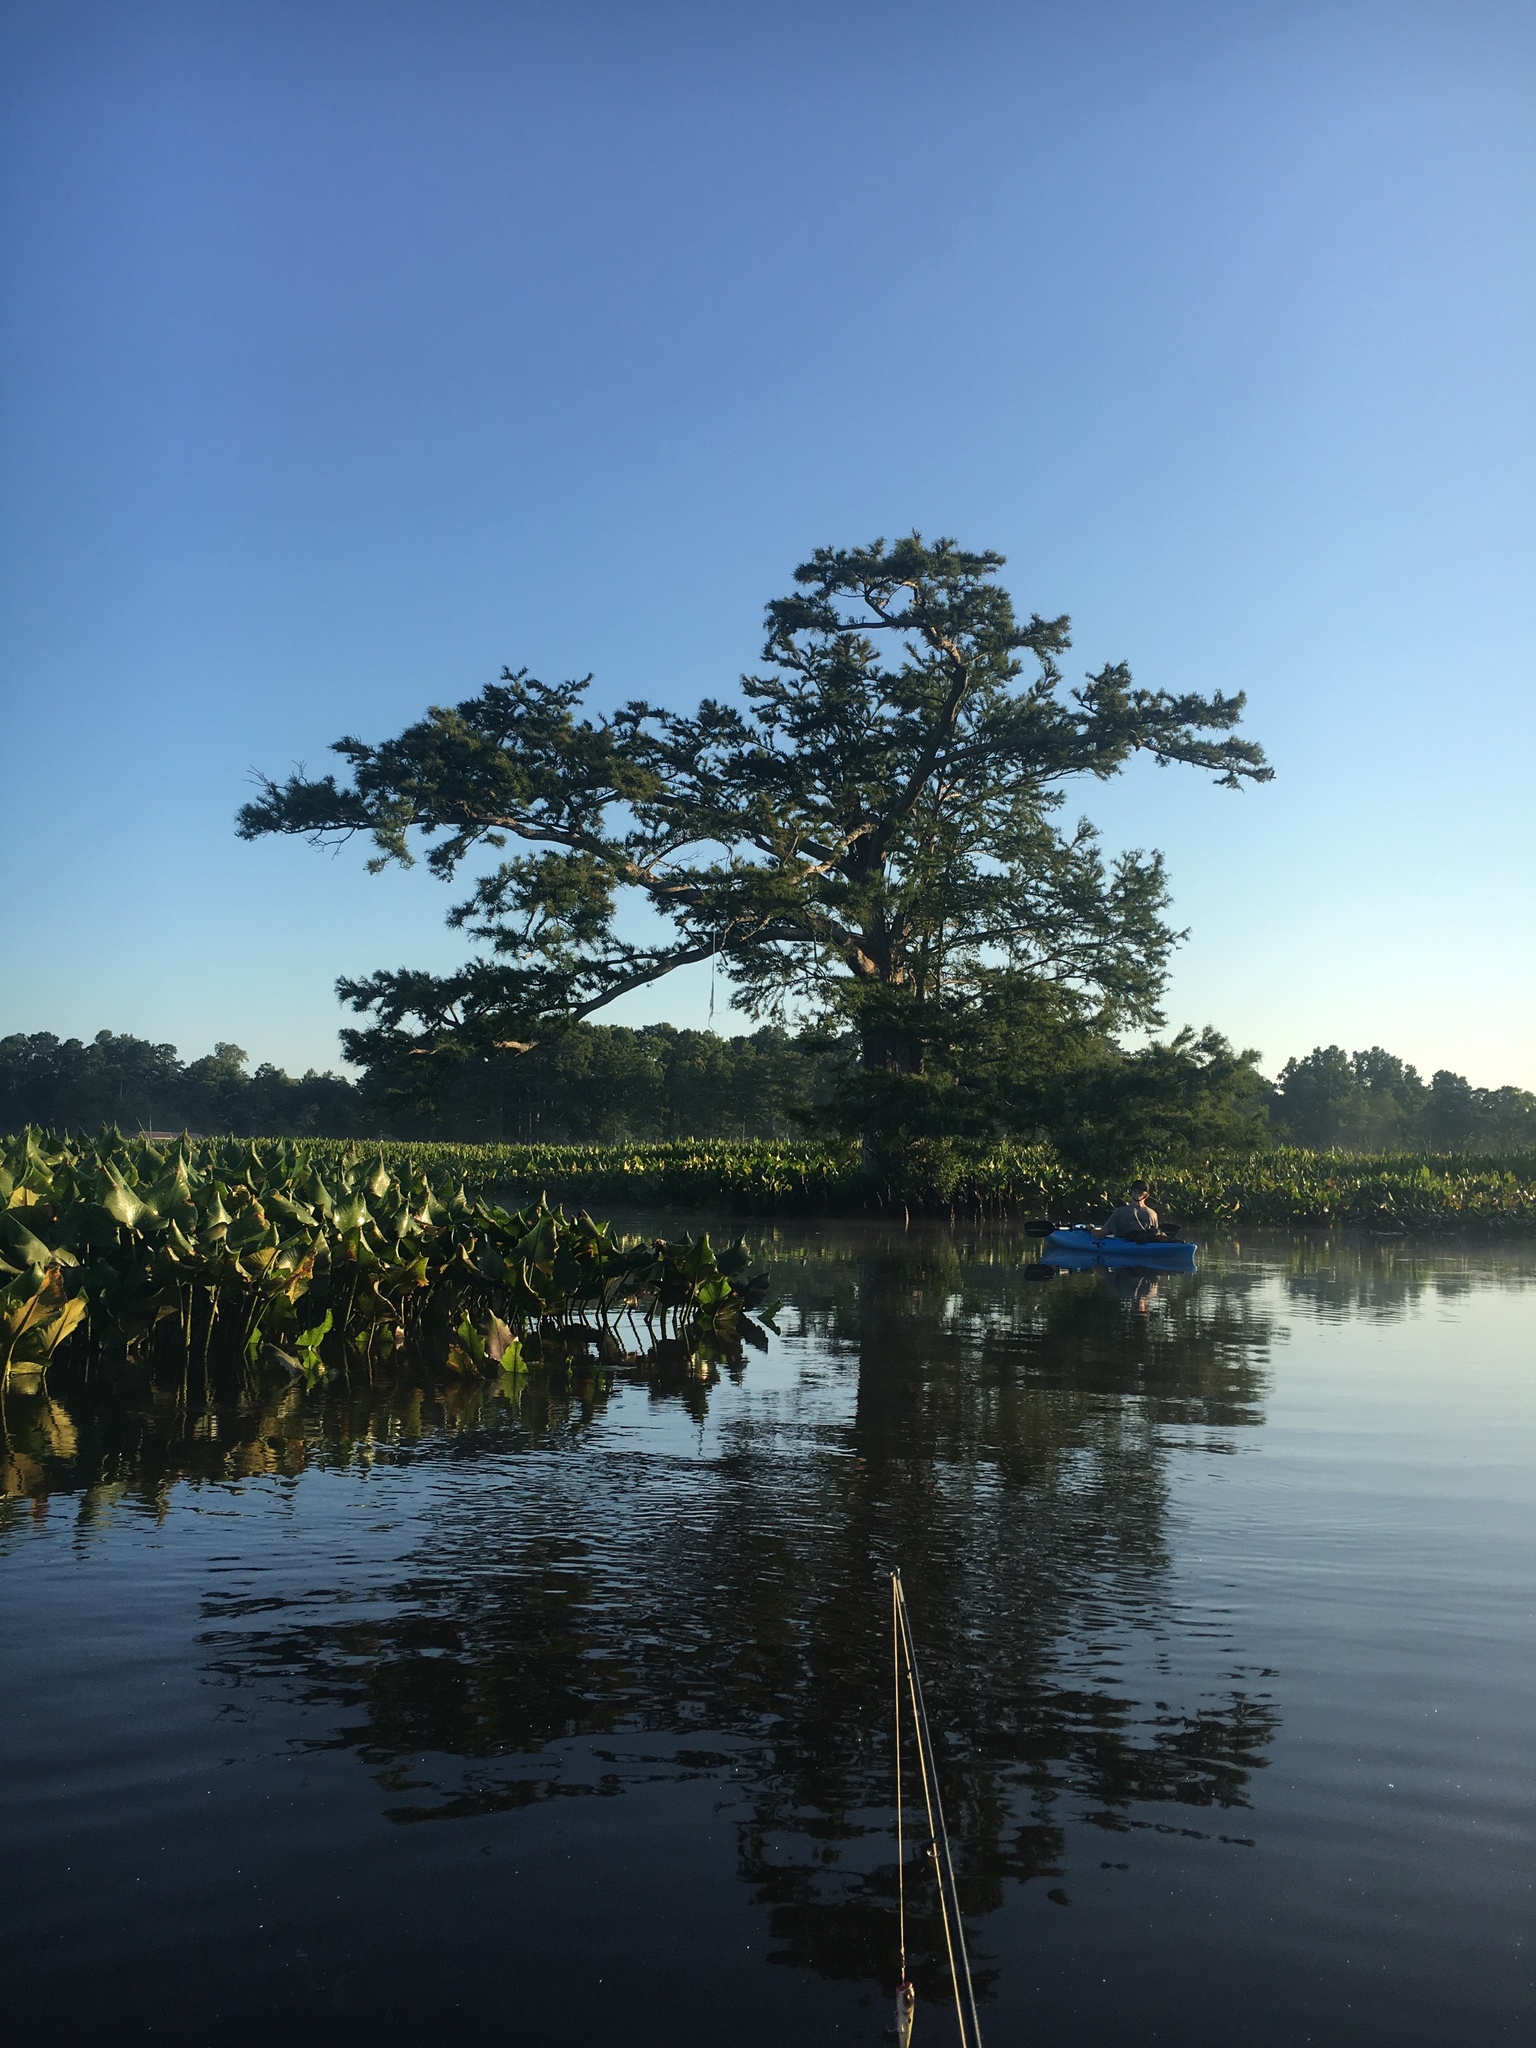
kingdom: Plantae
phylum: Tracheophyta
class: Pinopsida
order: Pinales
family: Cupressaceae
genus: Taxodium
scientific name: Taxodium distichum
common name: Bald cypress
